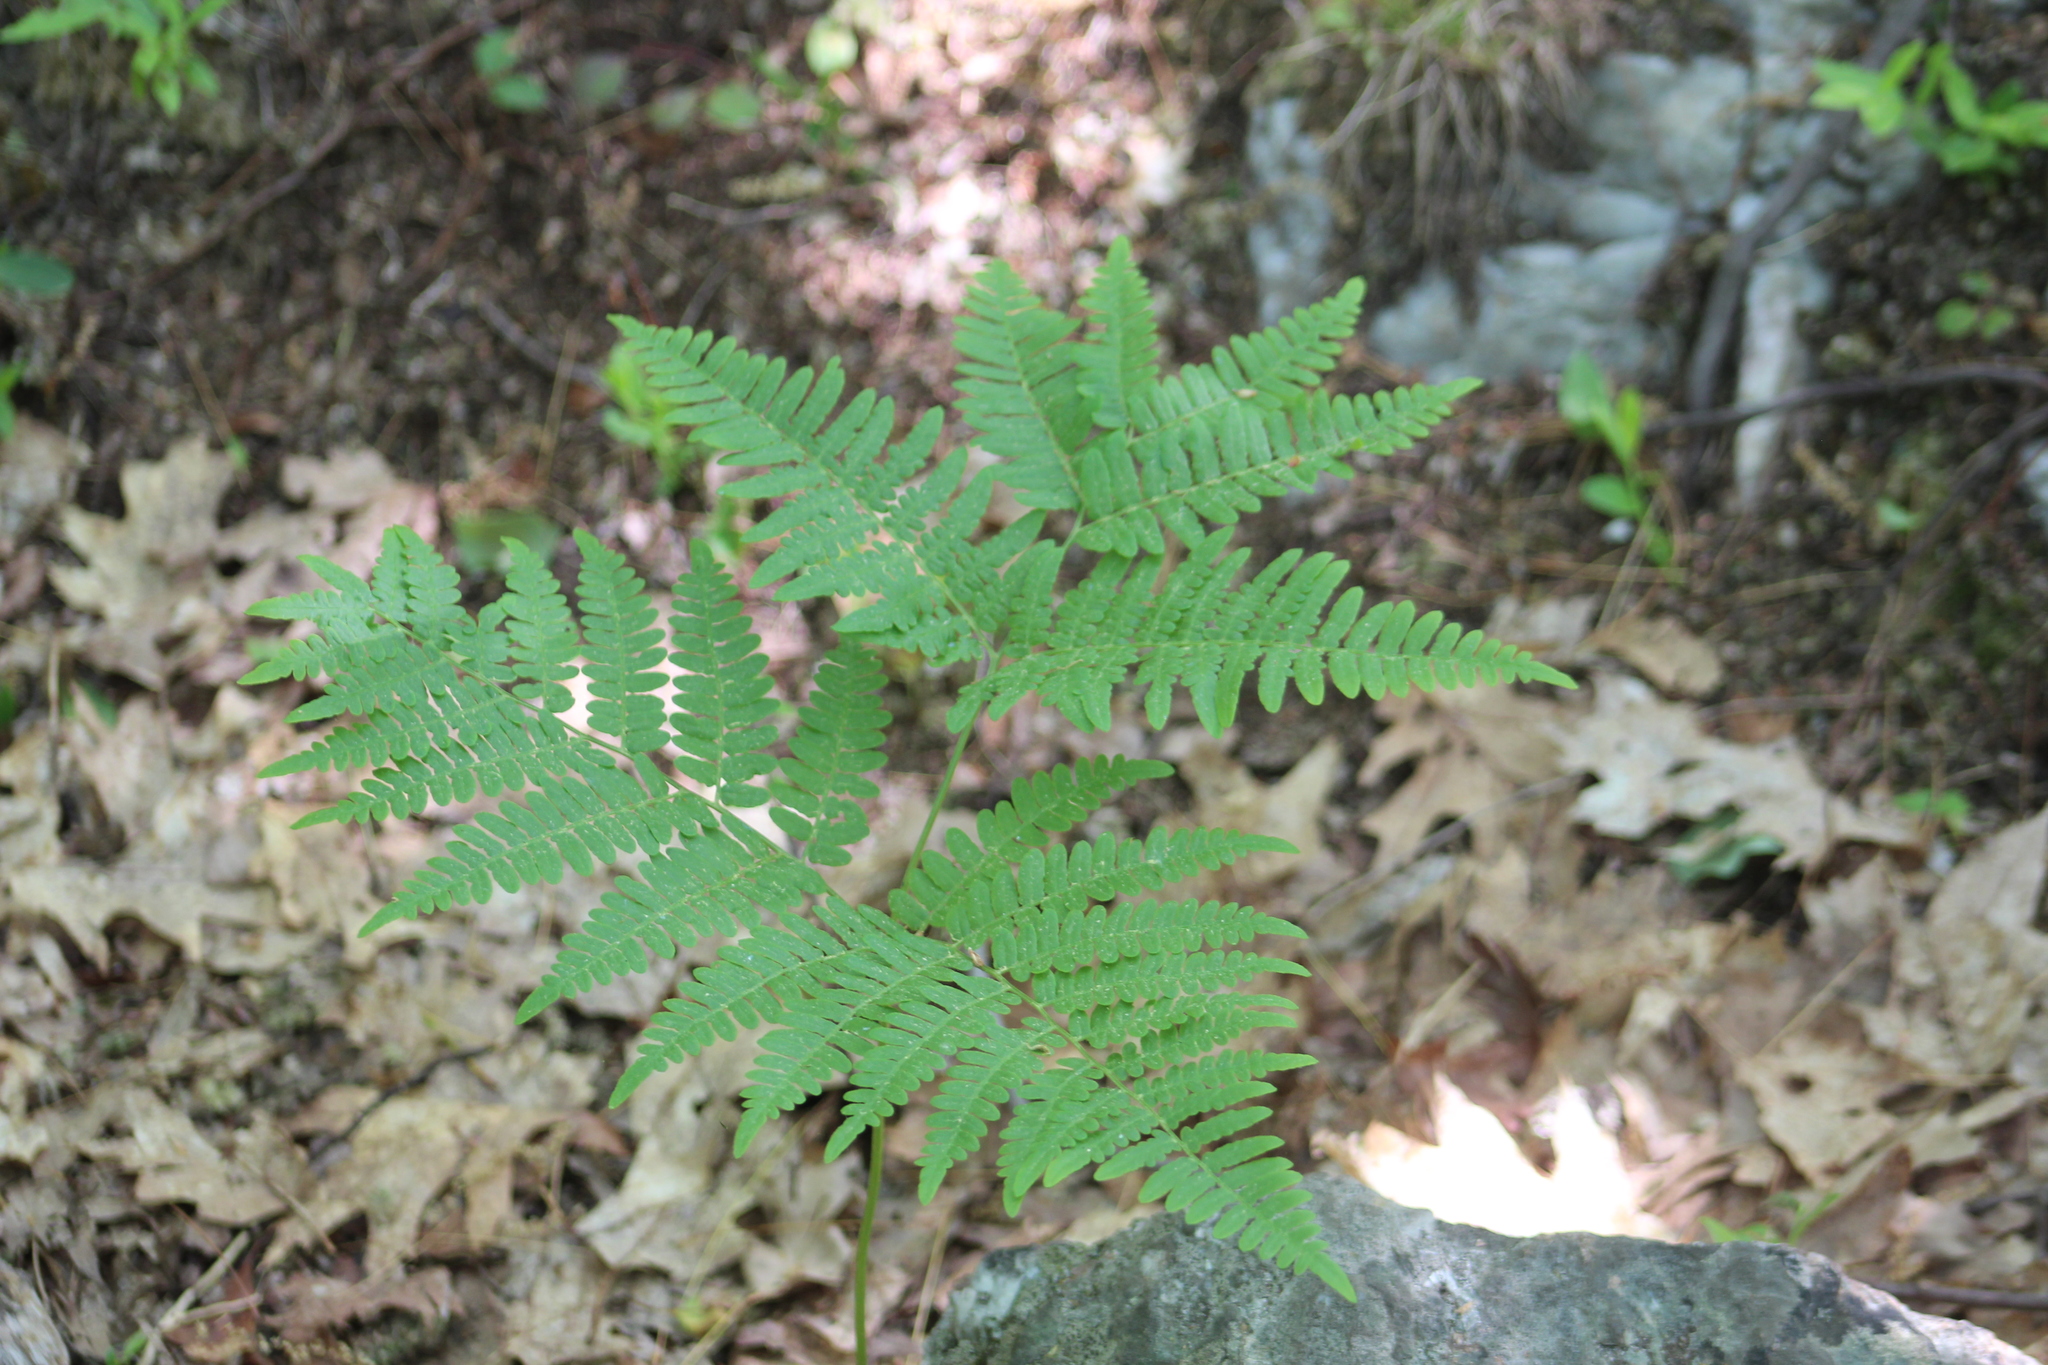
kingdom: Plantae
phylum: Tracheophyta
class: Polypodiopsida
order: Polypodiales
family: Dennstaedtiaceae
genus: Pteridium
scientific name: Pteridium aquilinum
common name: Bracken
